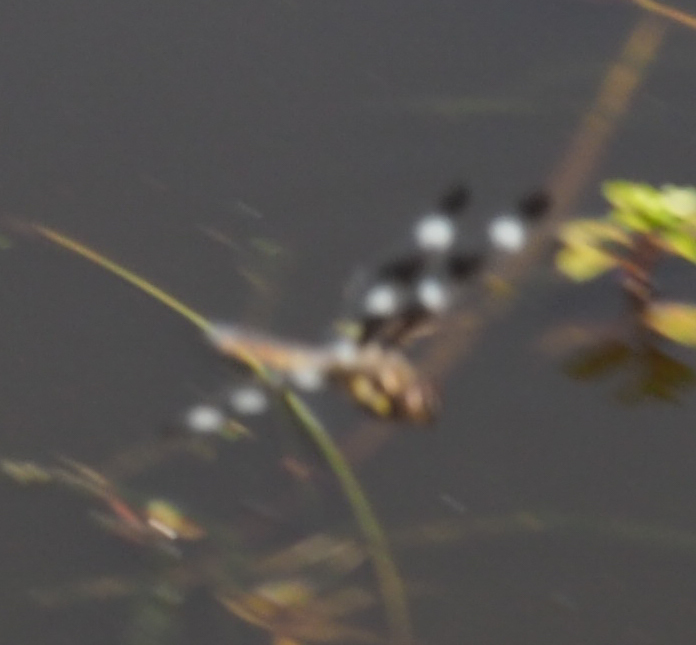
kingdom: Animalia
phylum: Arthropoda
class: Insecta
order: Odonata
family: Libellulidae
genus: Libellula
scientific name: Libellula pulchella
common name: Twelve-spotted skimmer
